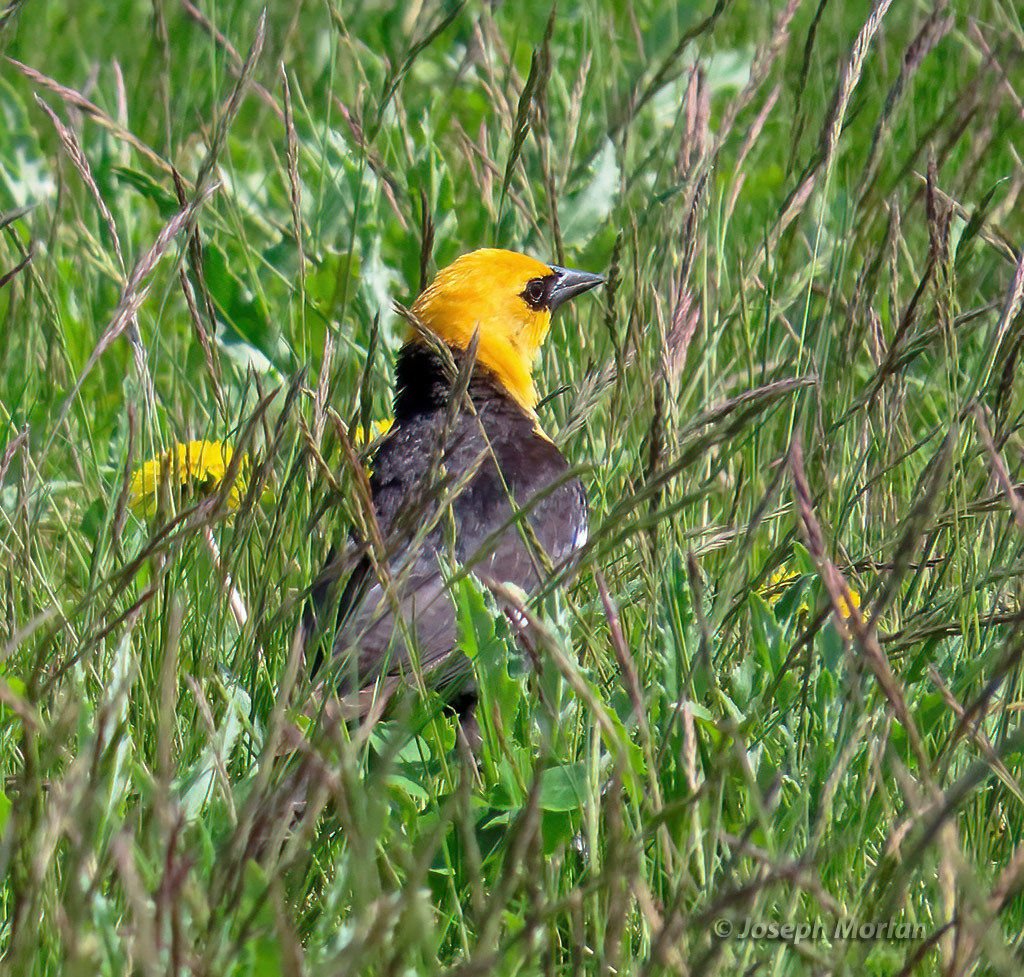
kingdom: Animalia
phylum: Chordata
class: Aves
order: Passeriformes
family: Icteridae
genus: Xanthocephalus
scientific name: Xanthocephalus xanthocephalus
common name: Yellow-headed blackbird
